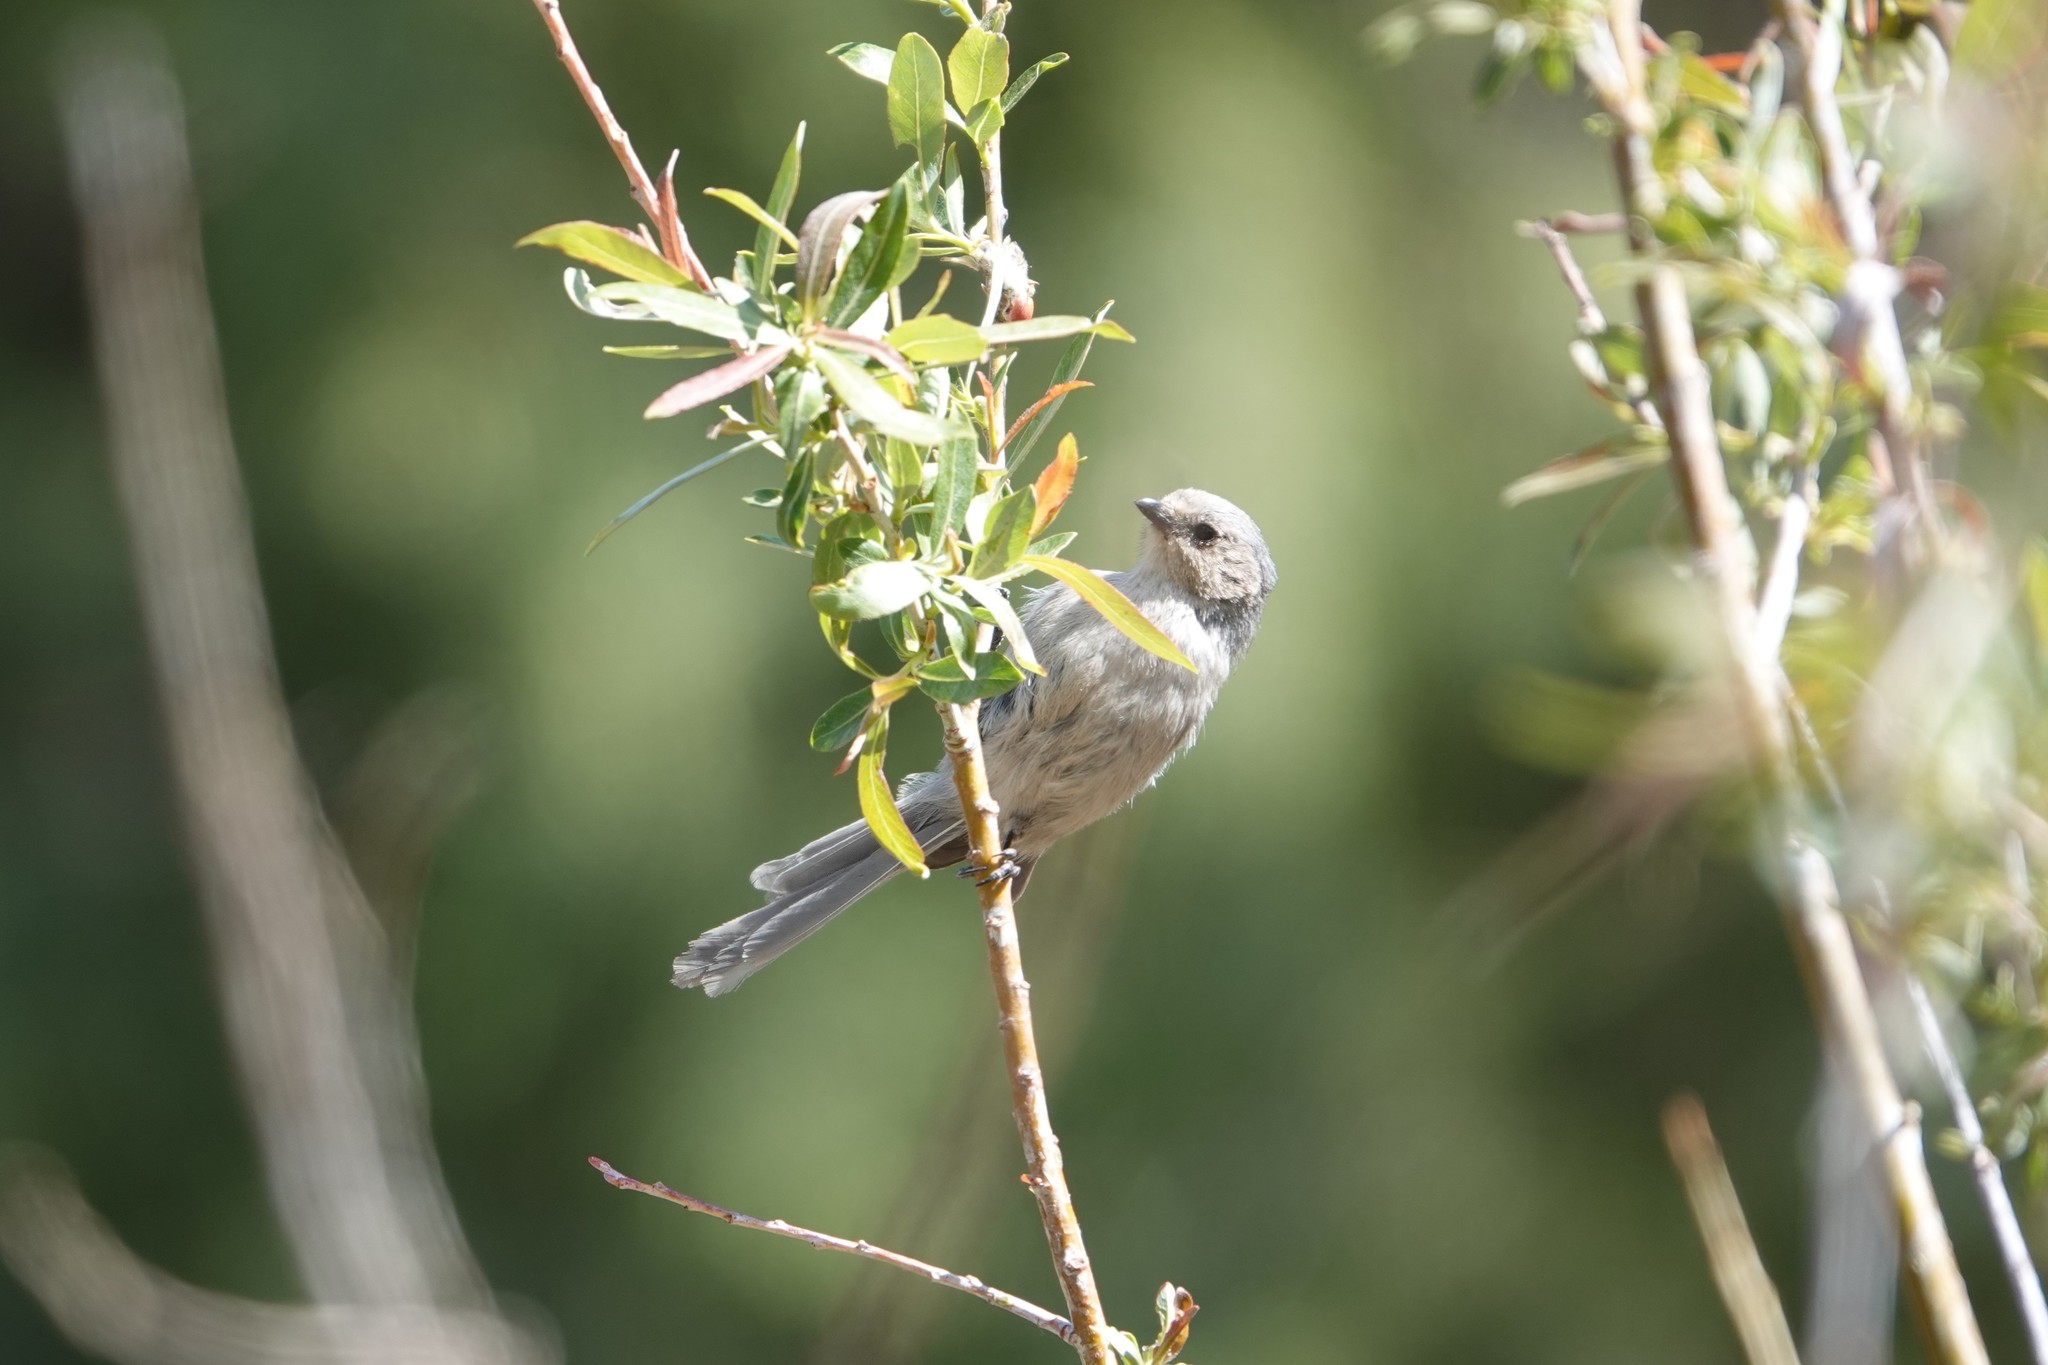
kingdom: Animalia
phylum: Chordata
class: Aves
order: Passeriformes
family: Aegithalidae
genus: Psaltriparus
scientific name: Psaltriparus minimus
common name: American bushtit
